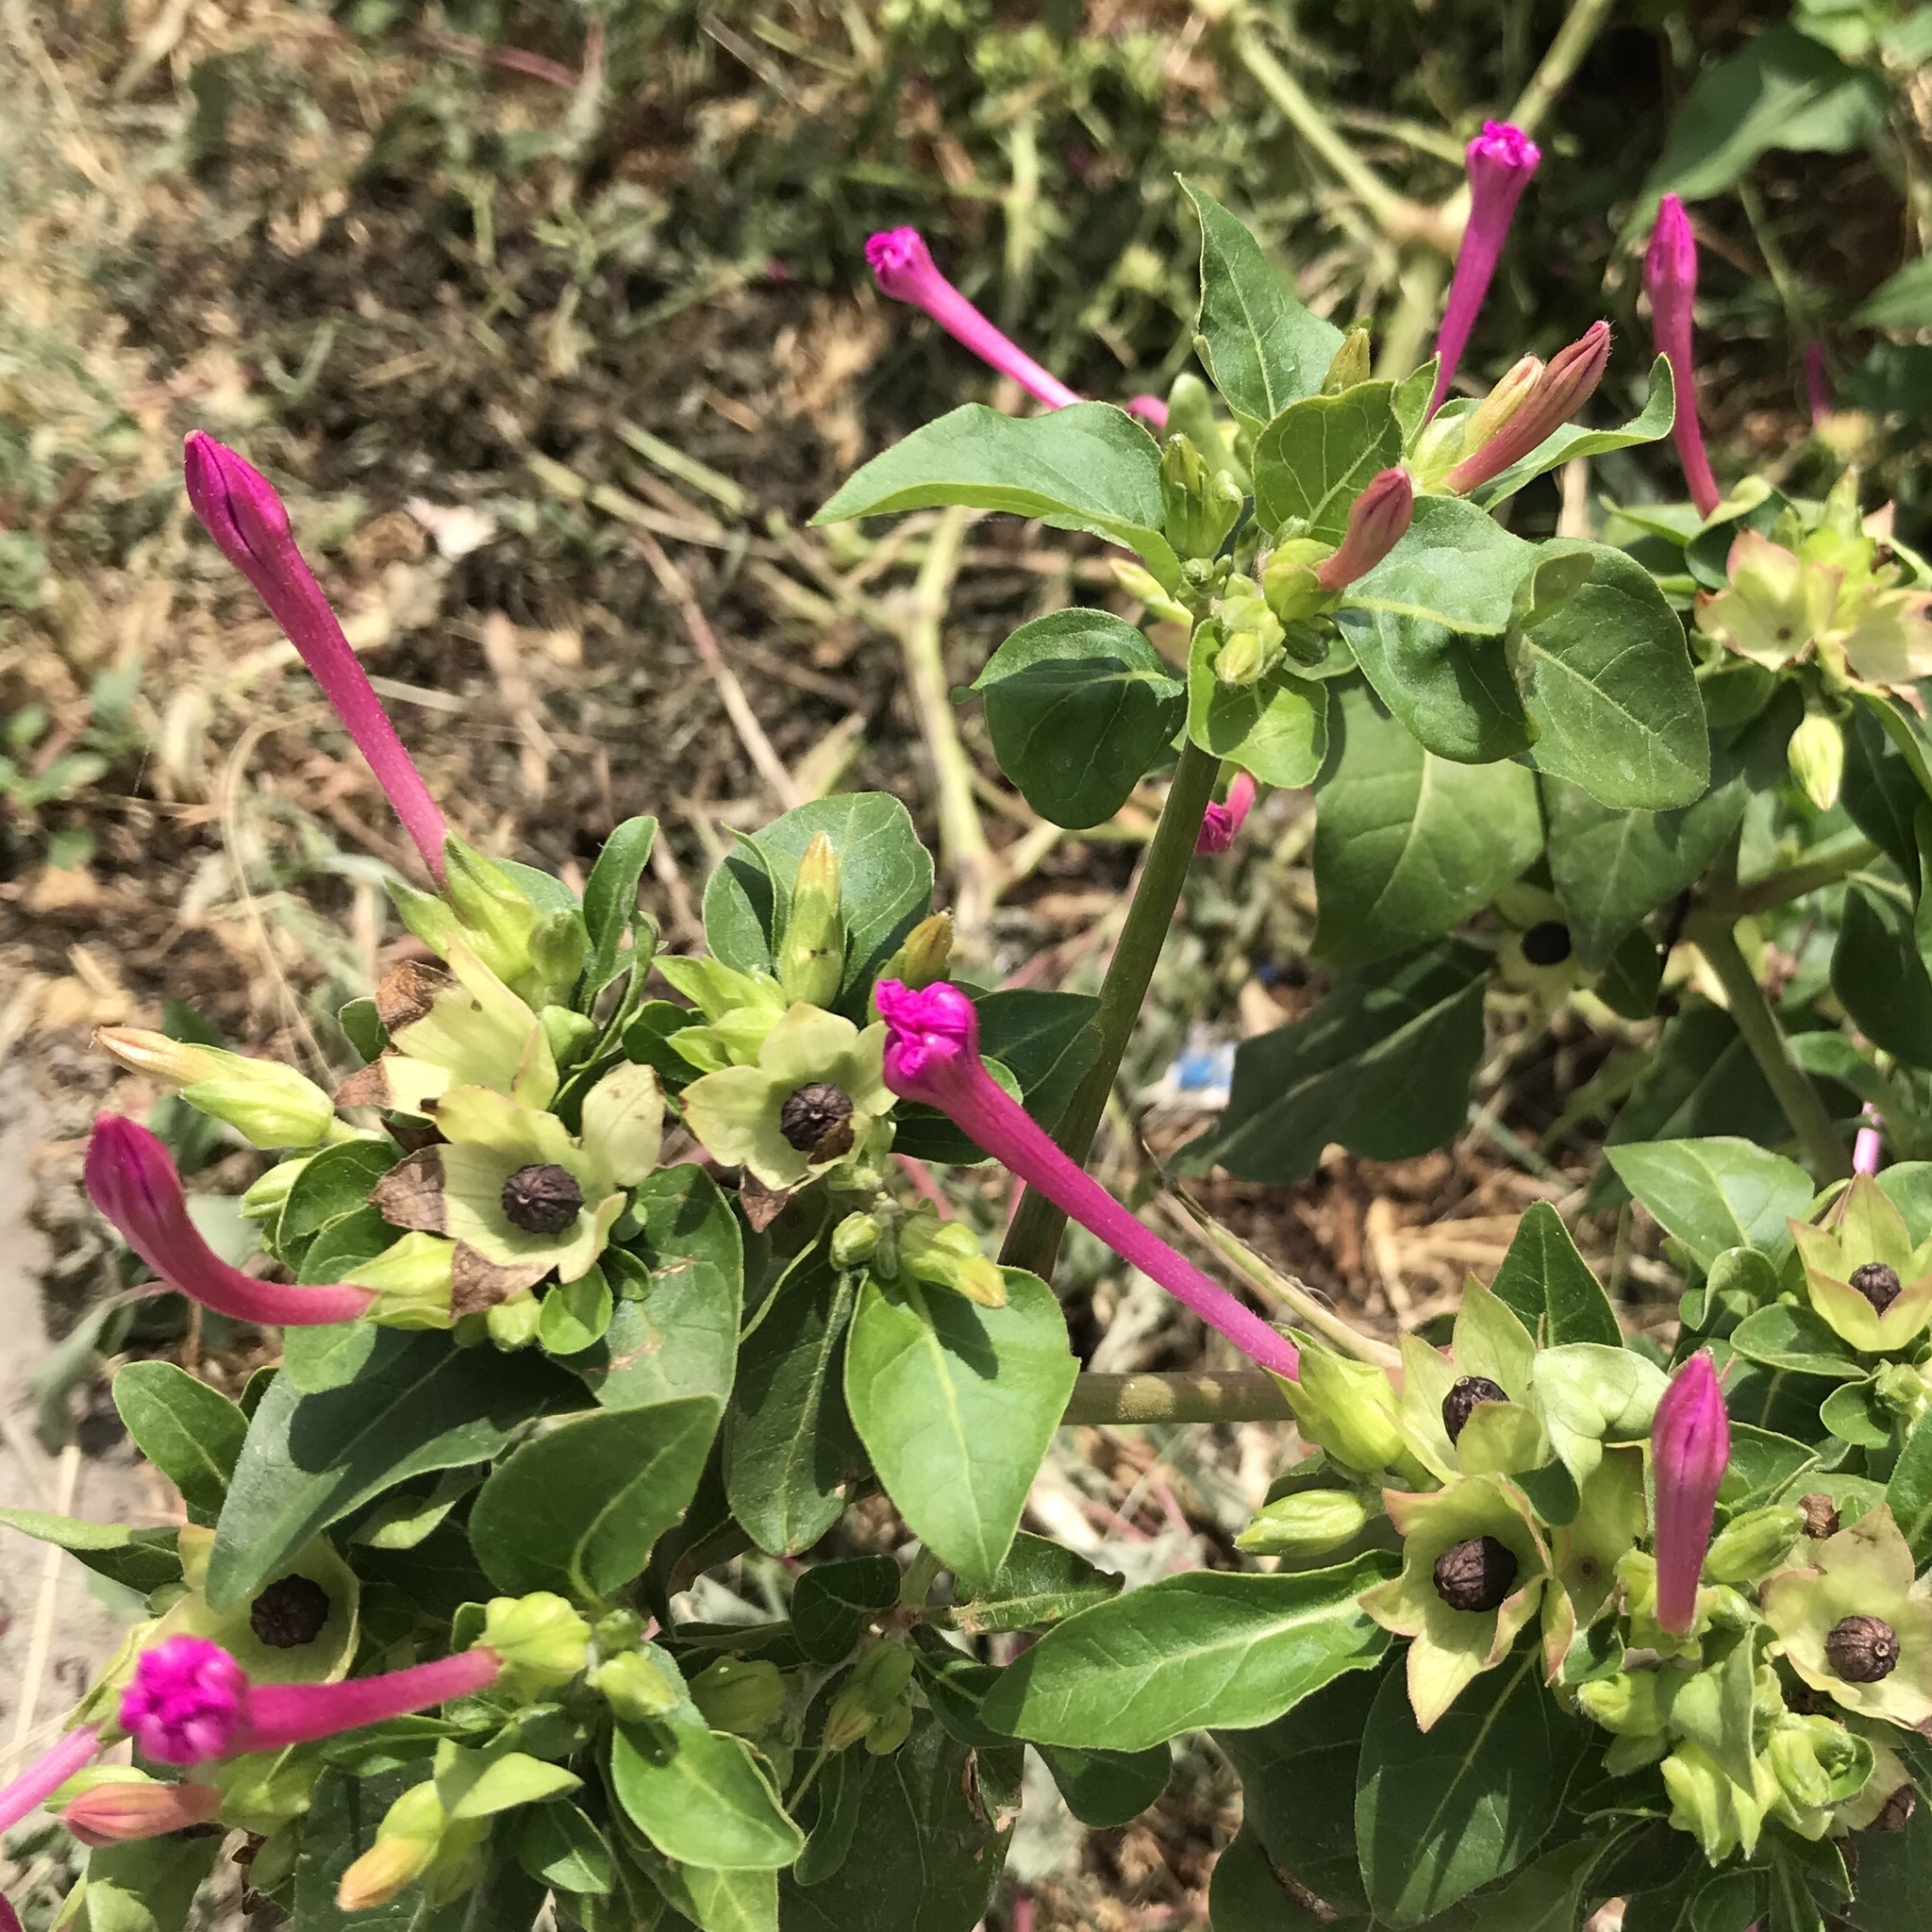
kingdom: Plantae
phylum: Tracheophyta
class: Magnoliopsida
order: Caryophyllales
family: Nyctaginaceae
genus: Mirabilis
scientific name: Mirabilis jalapa
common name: Marvel-of-peru
